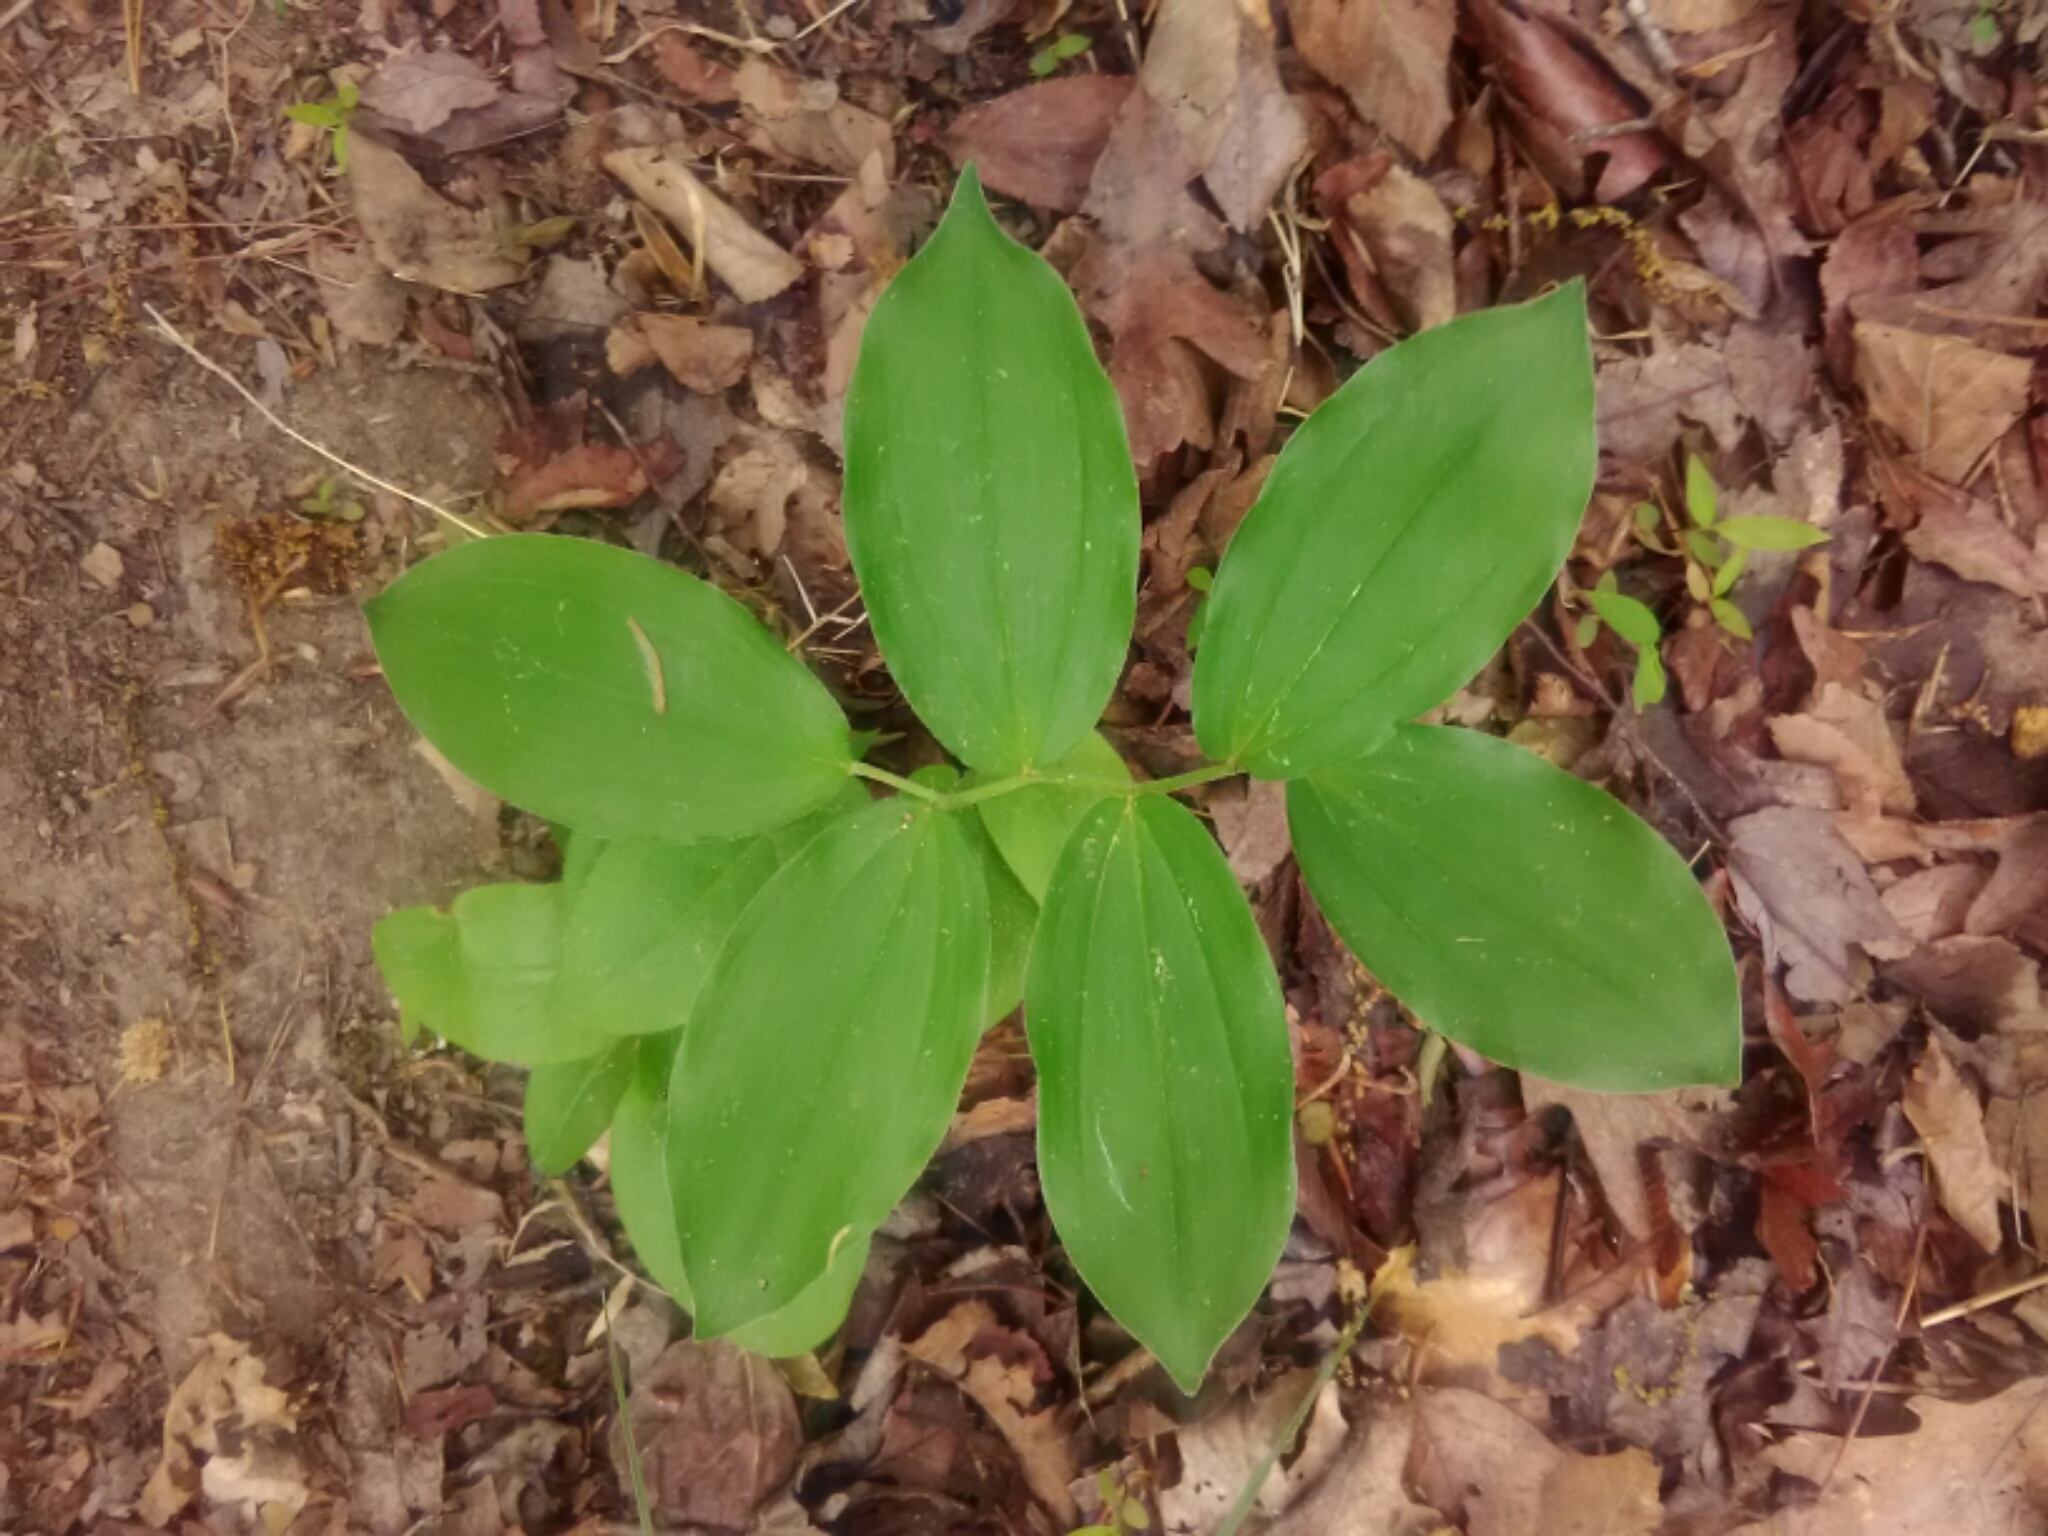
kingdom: Plantae
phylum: Tracheophyta
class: Liliopsida
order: Asparagales
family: Asparagaceae
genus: Maianthemum
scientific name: Maianthemum racemosum
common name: False spikenard
